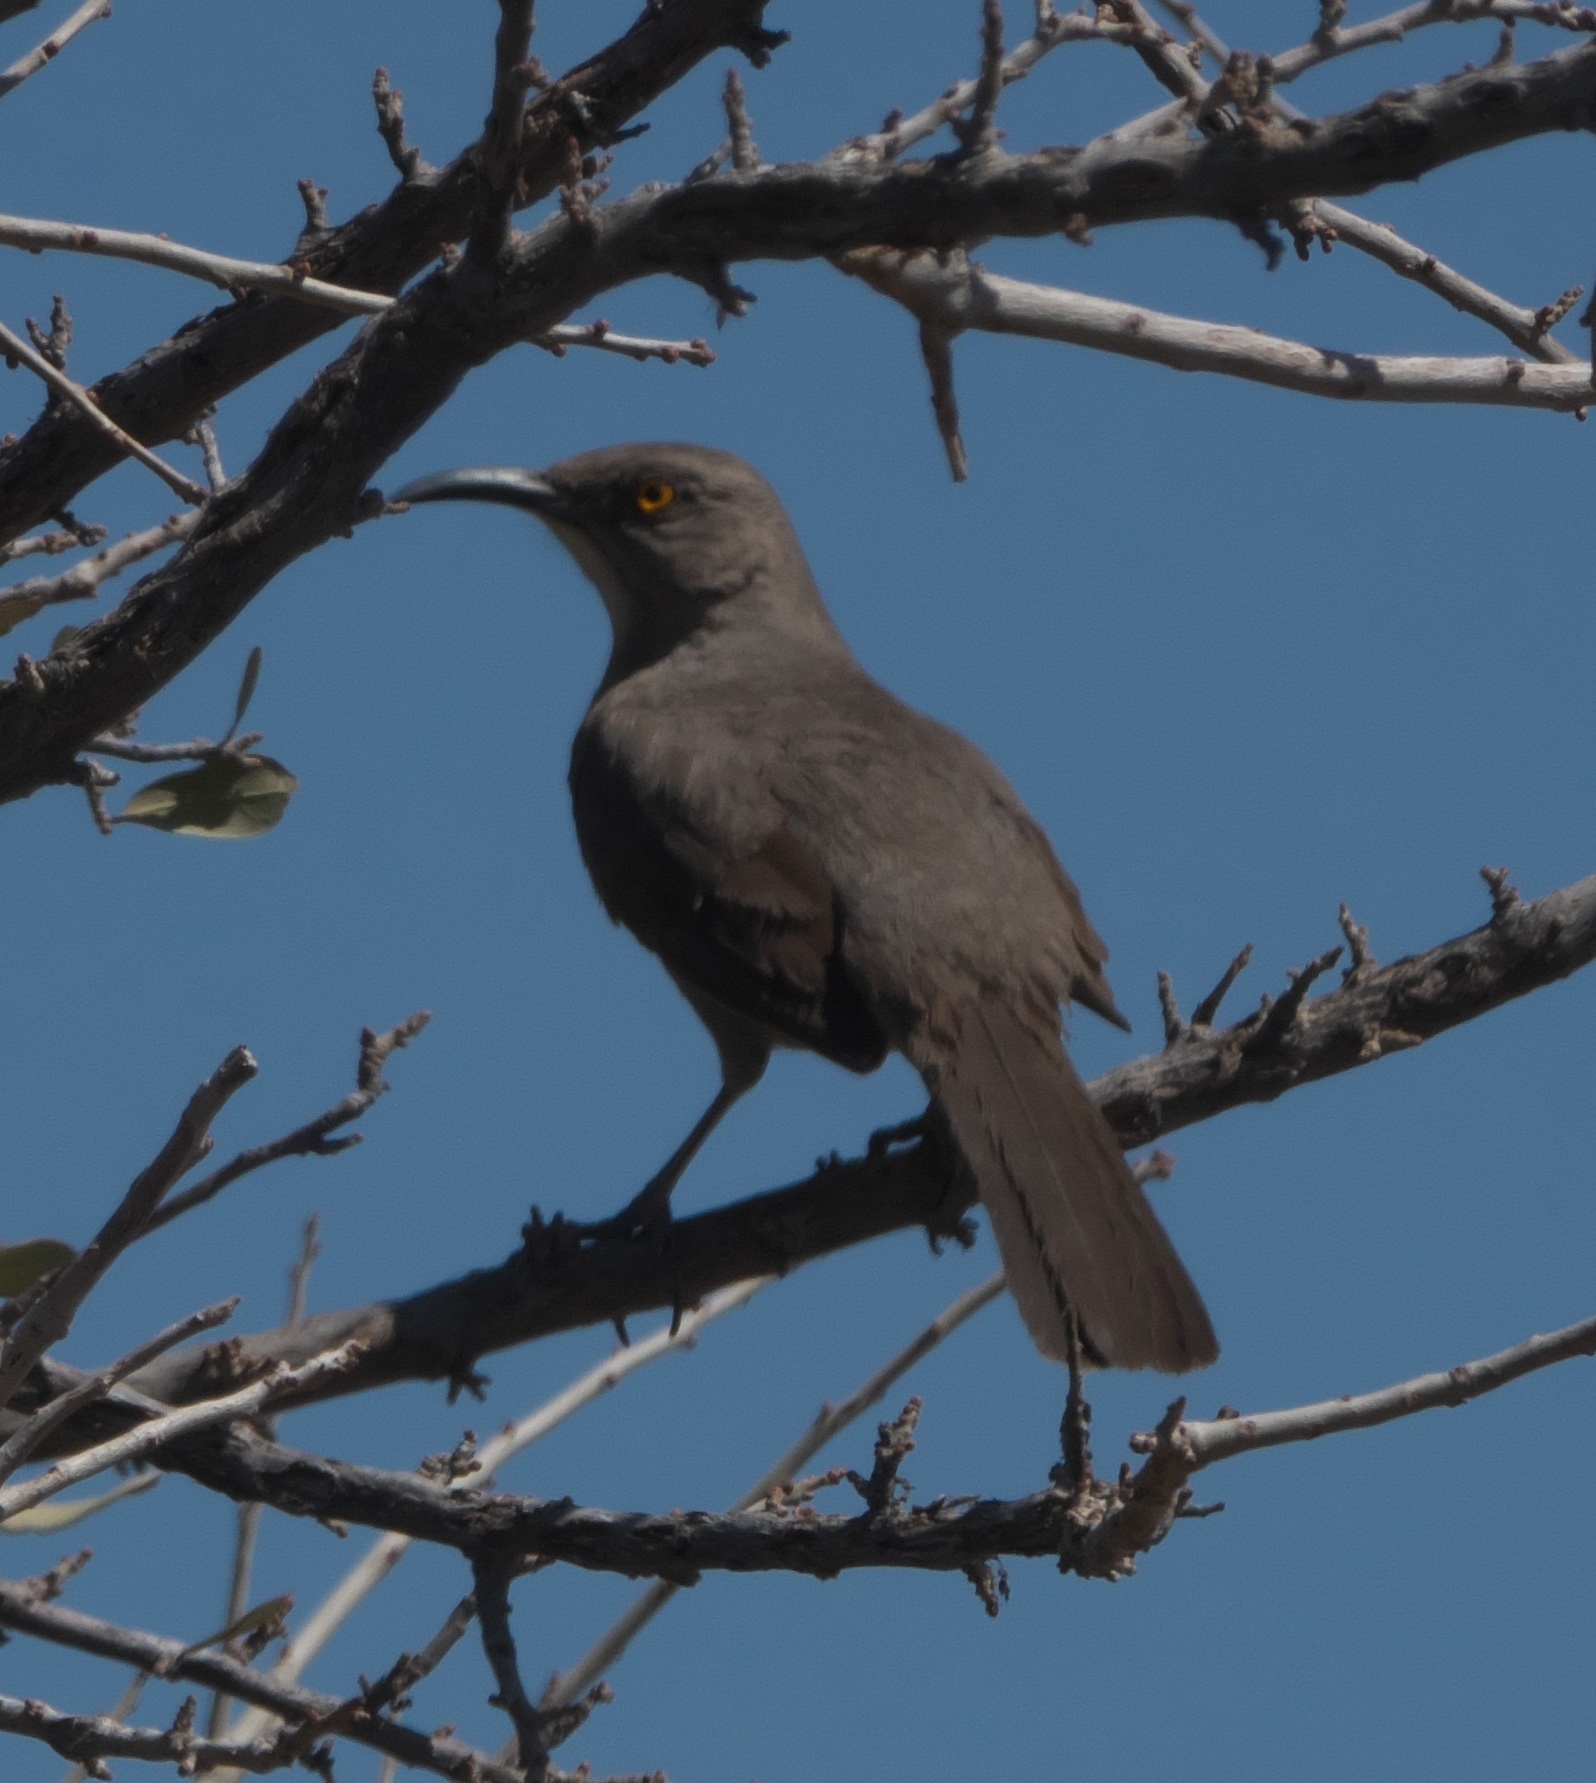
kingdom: Animalia
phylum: Chordata
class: Aves
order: Passeriformes
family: Mimidae
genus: Toxostoma
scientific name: Toxostoma curvirostre
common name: Curve-billed thrasher
